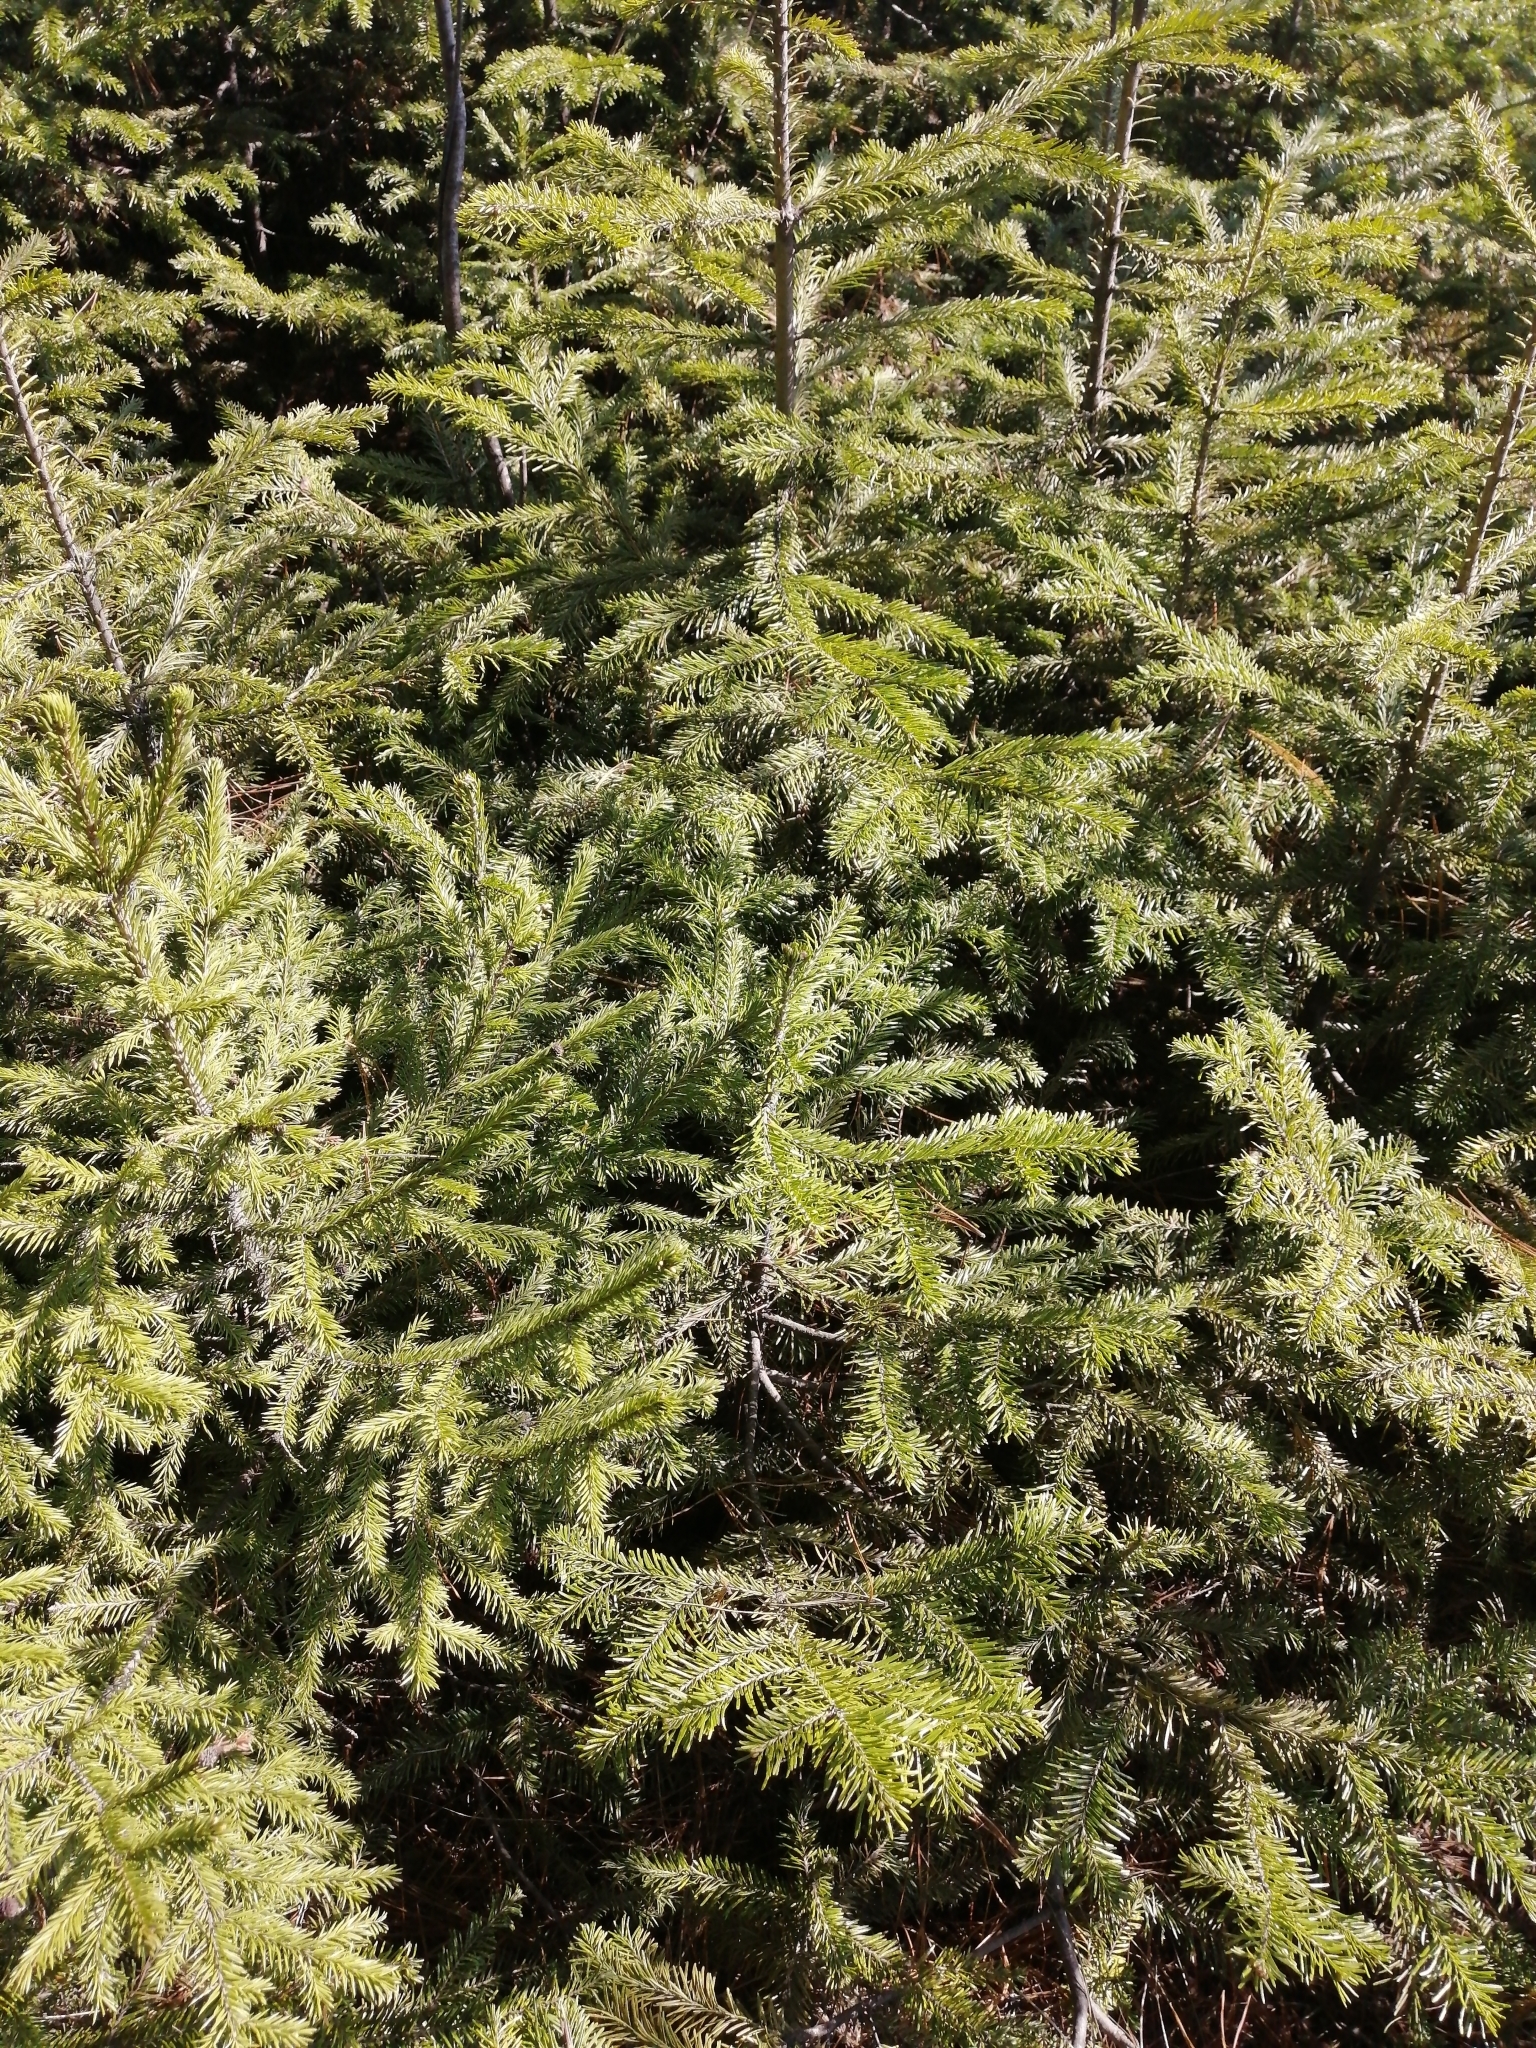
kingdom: Plantae
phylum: Tracheophyta
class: Pinopsida
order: Pinales
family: Pinaceae
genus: Picea
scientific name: Picea obovata
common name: Siberian spruce
